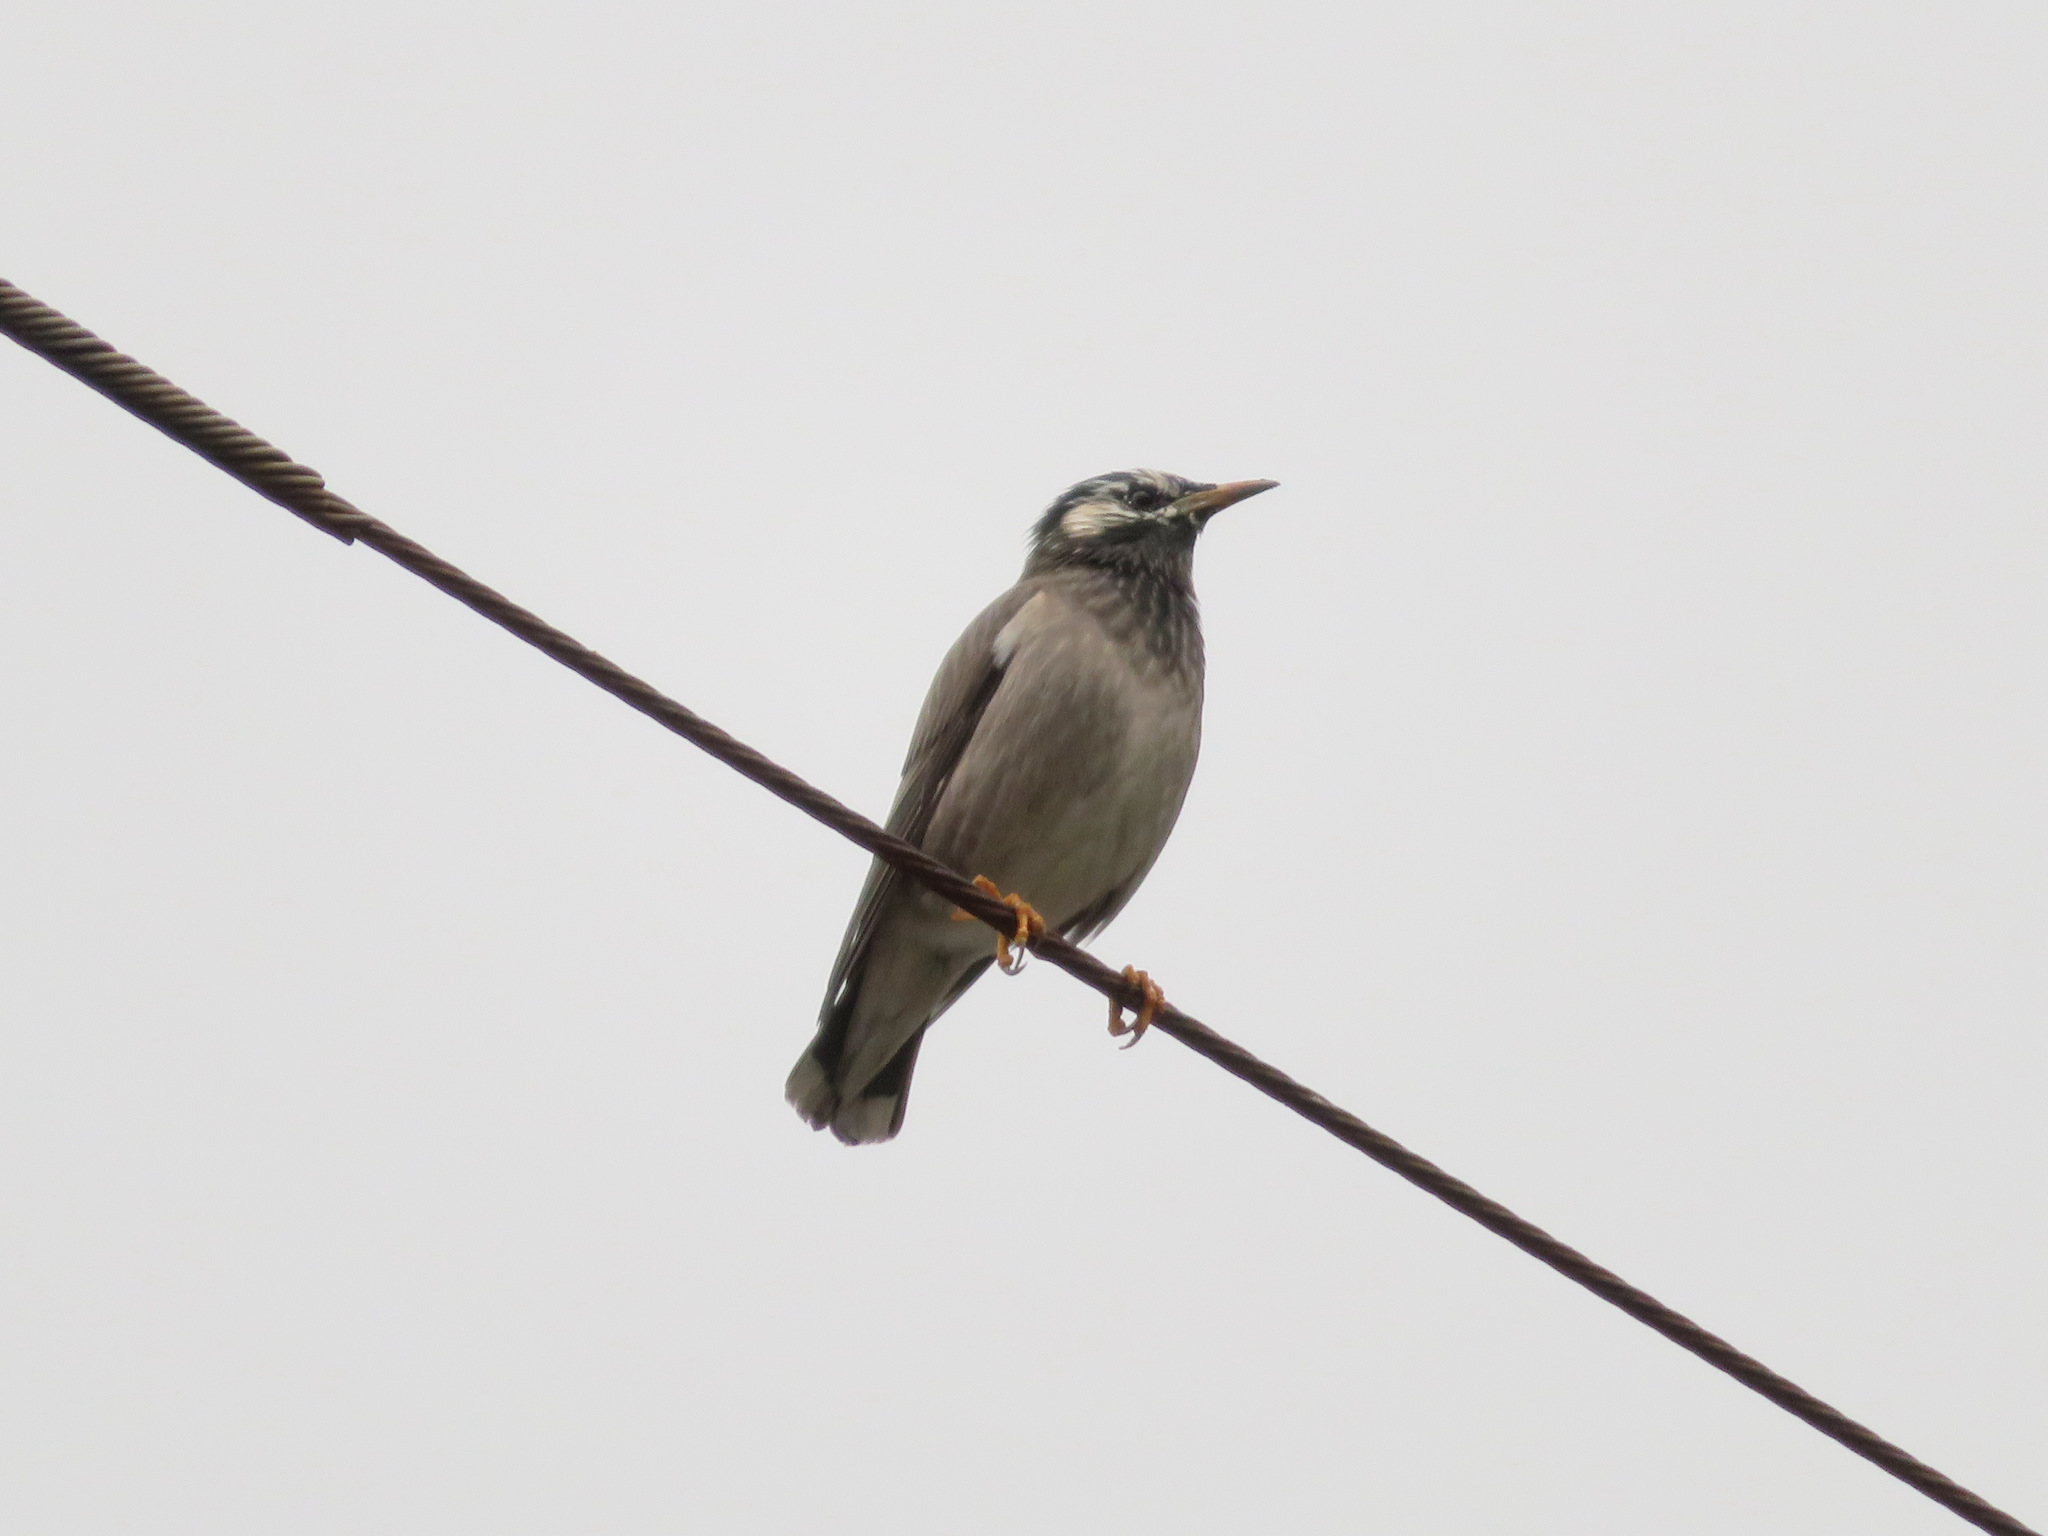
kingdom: Animalia
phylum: Chordata
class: Aves
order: Passeriformes
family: Sturnidae
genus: Spodiopsar
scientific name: Spodiopsar cineraceus
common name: White-cheeked starling
